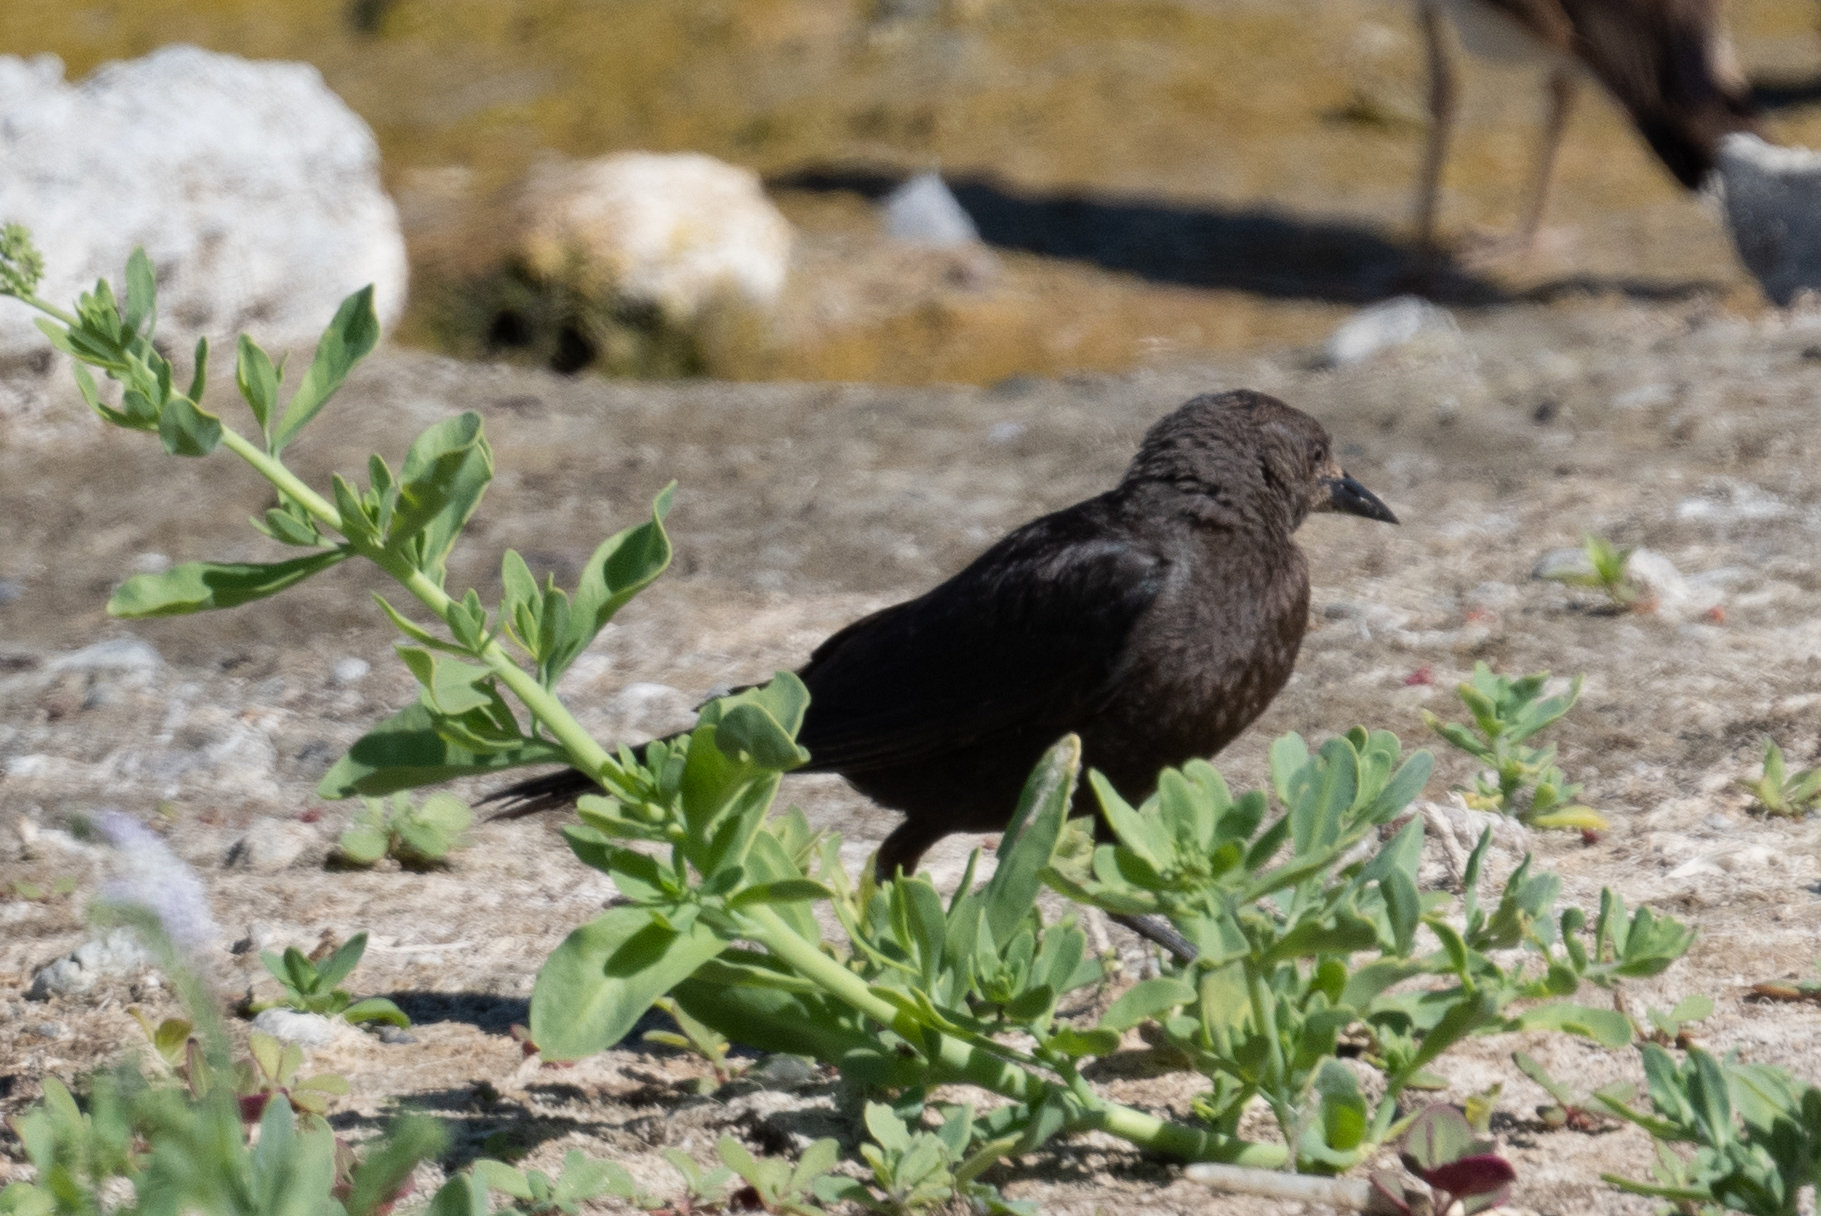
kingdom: Animalia
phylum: Chordata
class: Aves
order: Passeriformes
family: Icteridae
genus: Euphagus
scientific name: Euphagus cyanocephalus
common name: Brewer's blackbird
